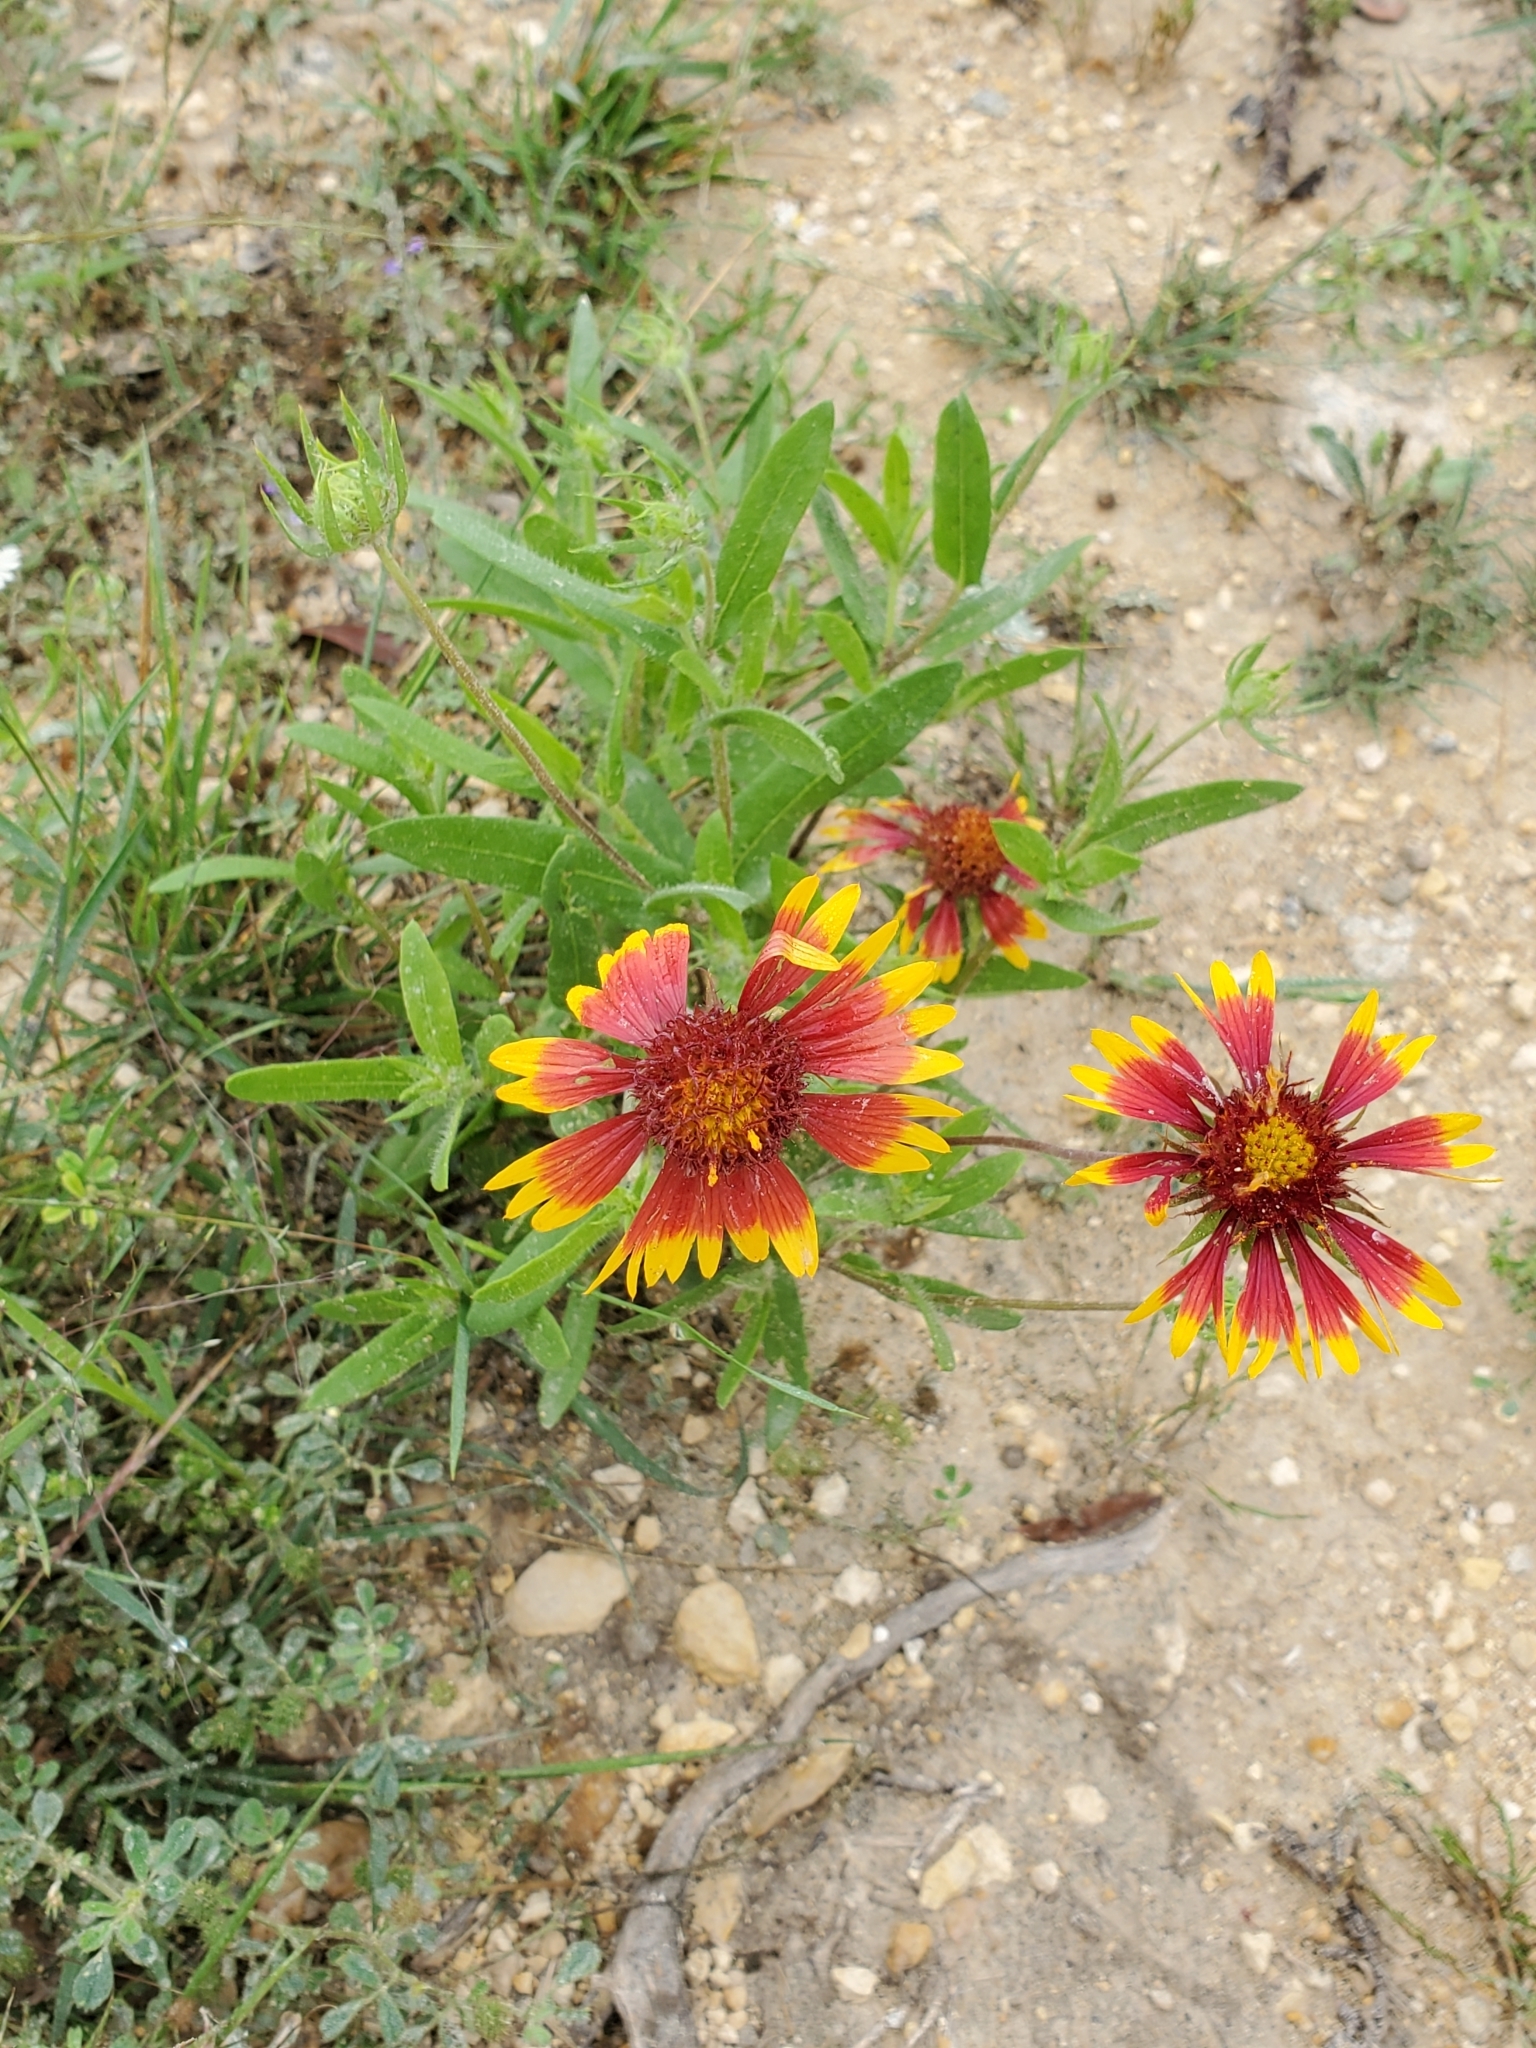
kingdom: Plantae
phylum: Tracheophyta
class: Magnoliopsida
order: Asterales
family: Asteraceae
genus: Gaillardia
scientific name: Gaillardia pulchella
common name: Firewheel
